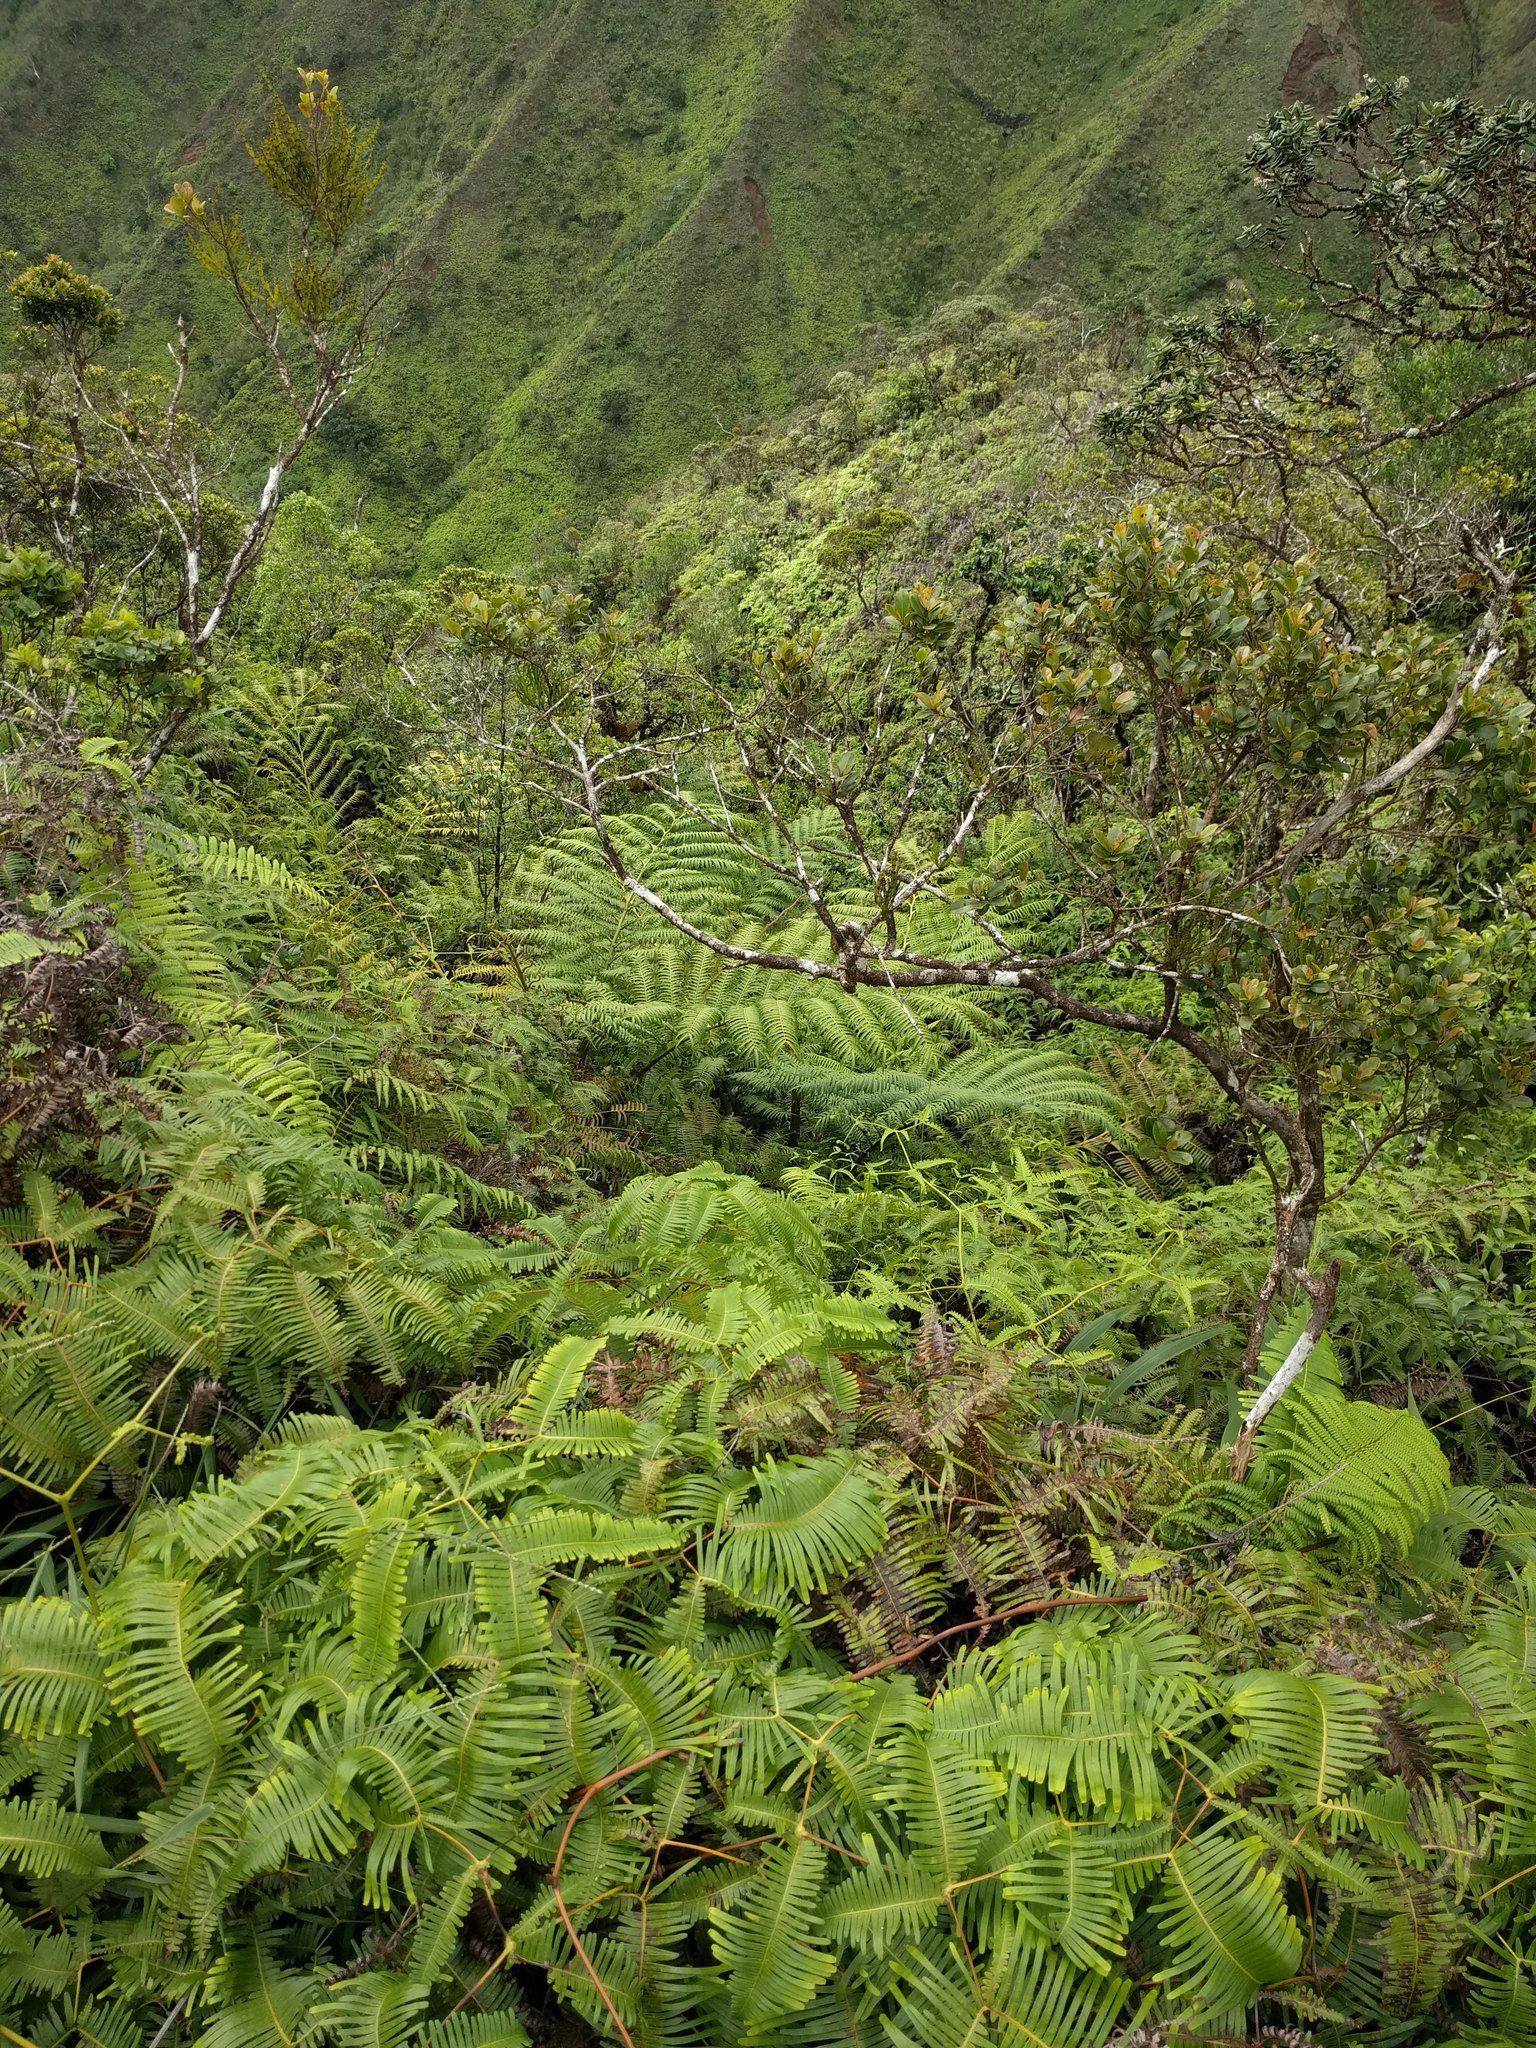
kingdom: Plantae
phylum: Tracheophyta
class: Polypodiopsida
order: Marattiales
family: Marattiaceae
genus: Angiopteris
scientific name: Angiopteris evecta
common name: Mule's-foot fern
